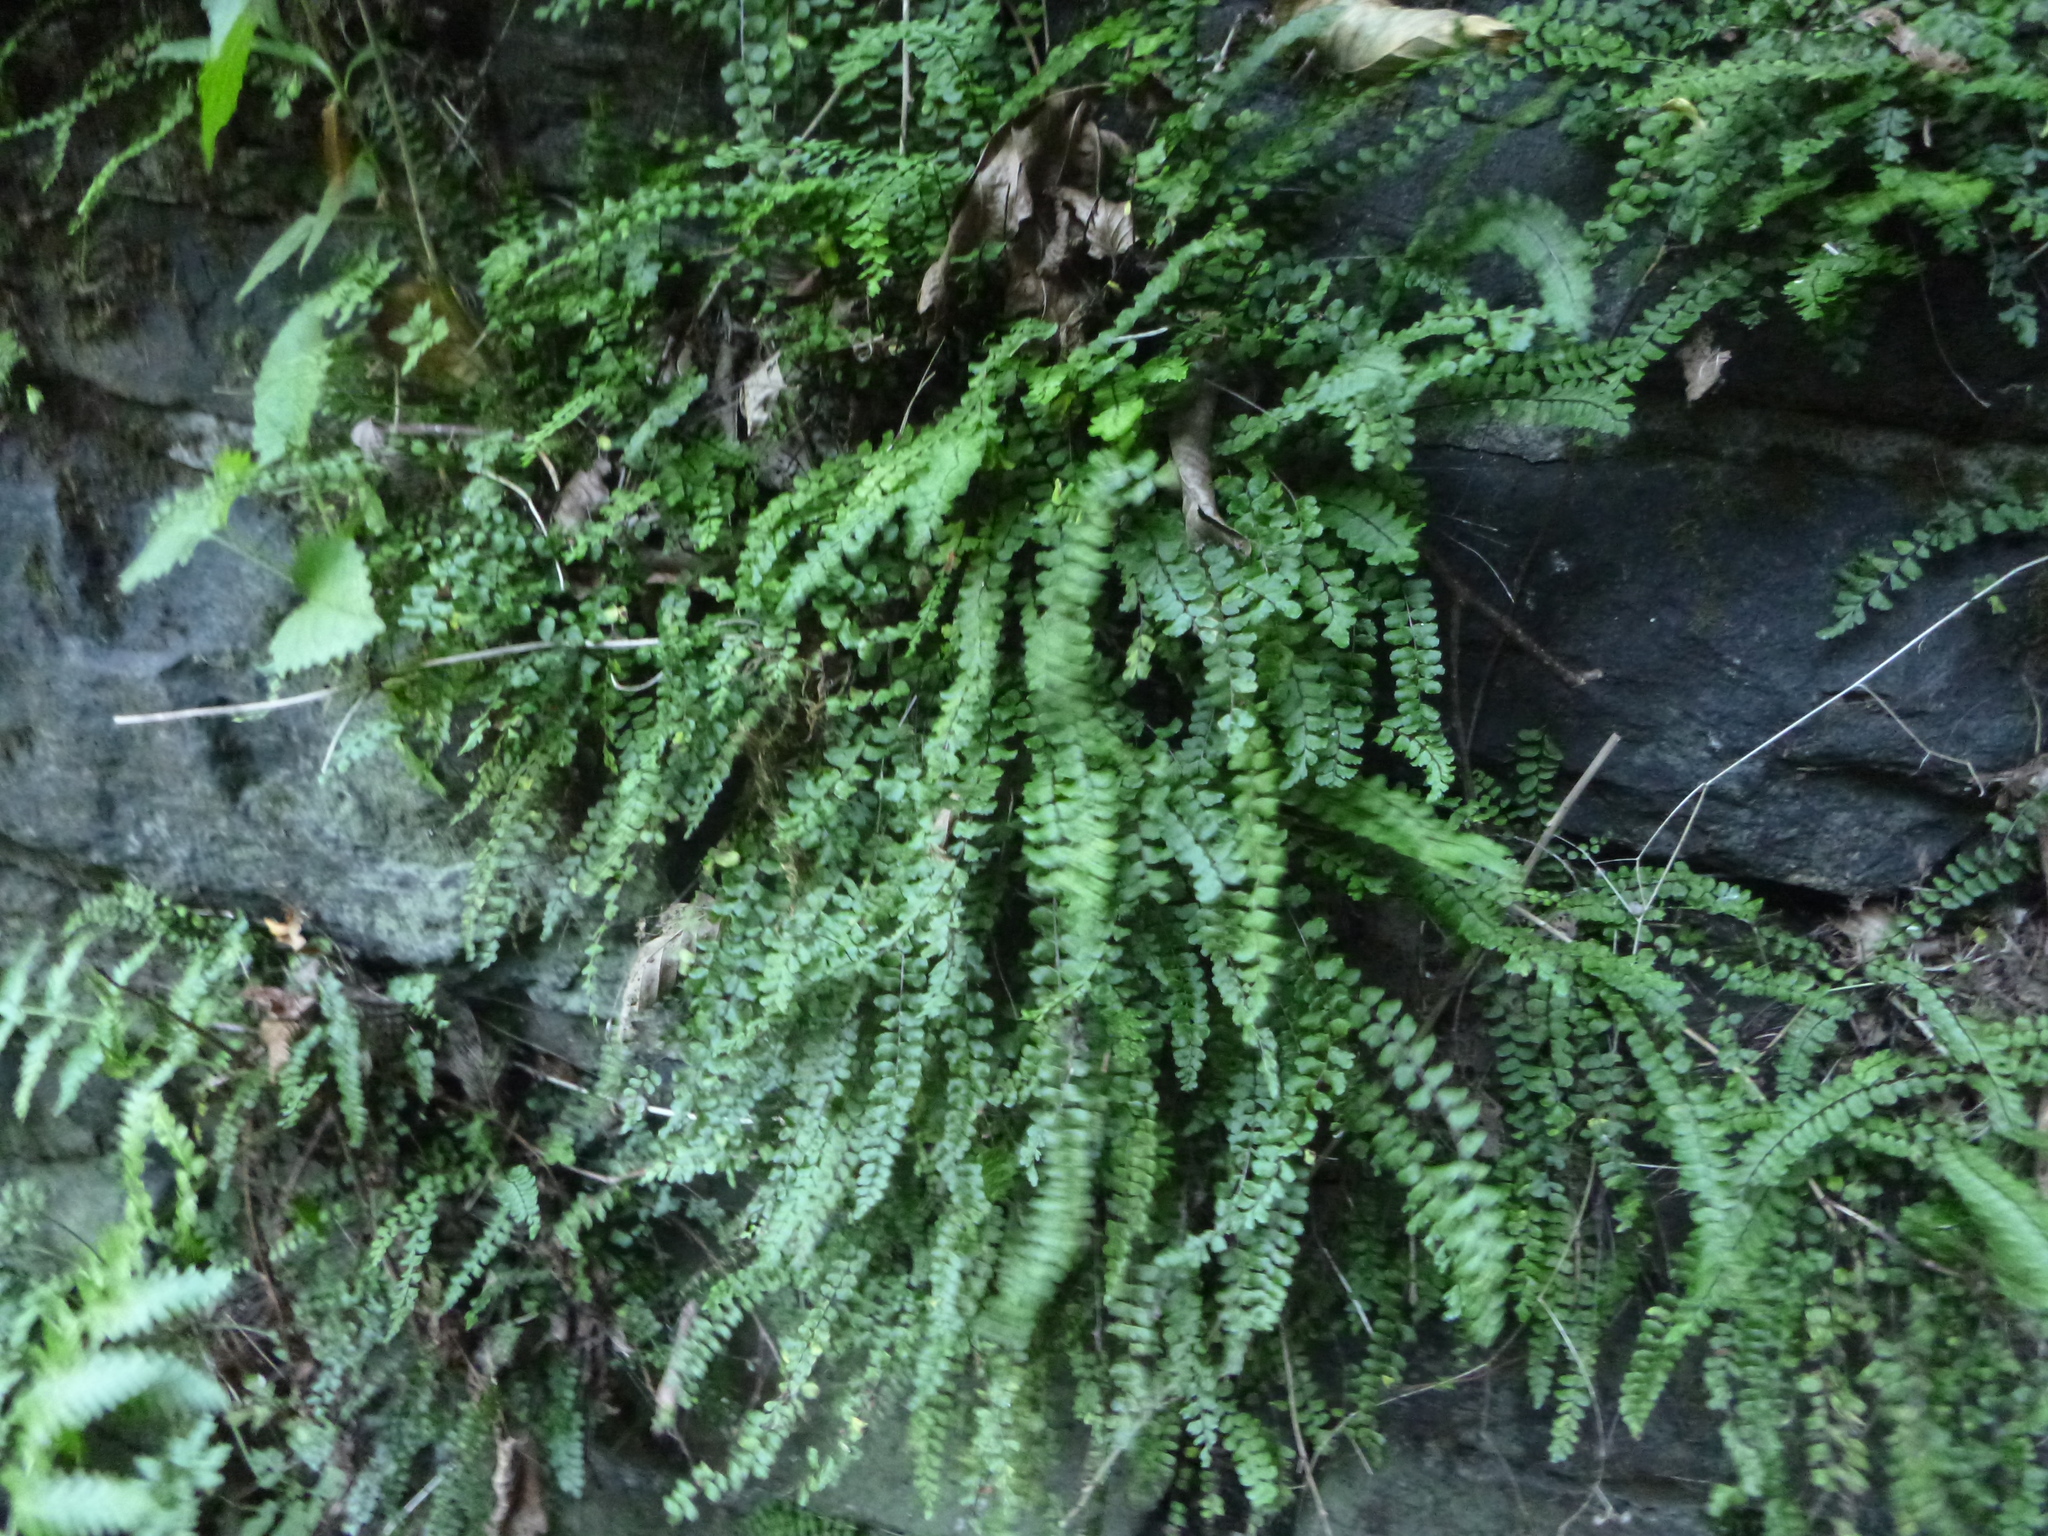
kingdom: Plantae
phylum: Tracheophyta
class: Polypodiopsida
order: Polypodiales
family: Aspleniaceae
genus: Asplenium
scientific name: Asplenium trichomanes
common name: Maidenhair spleenwort
